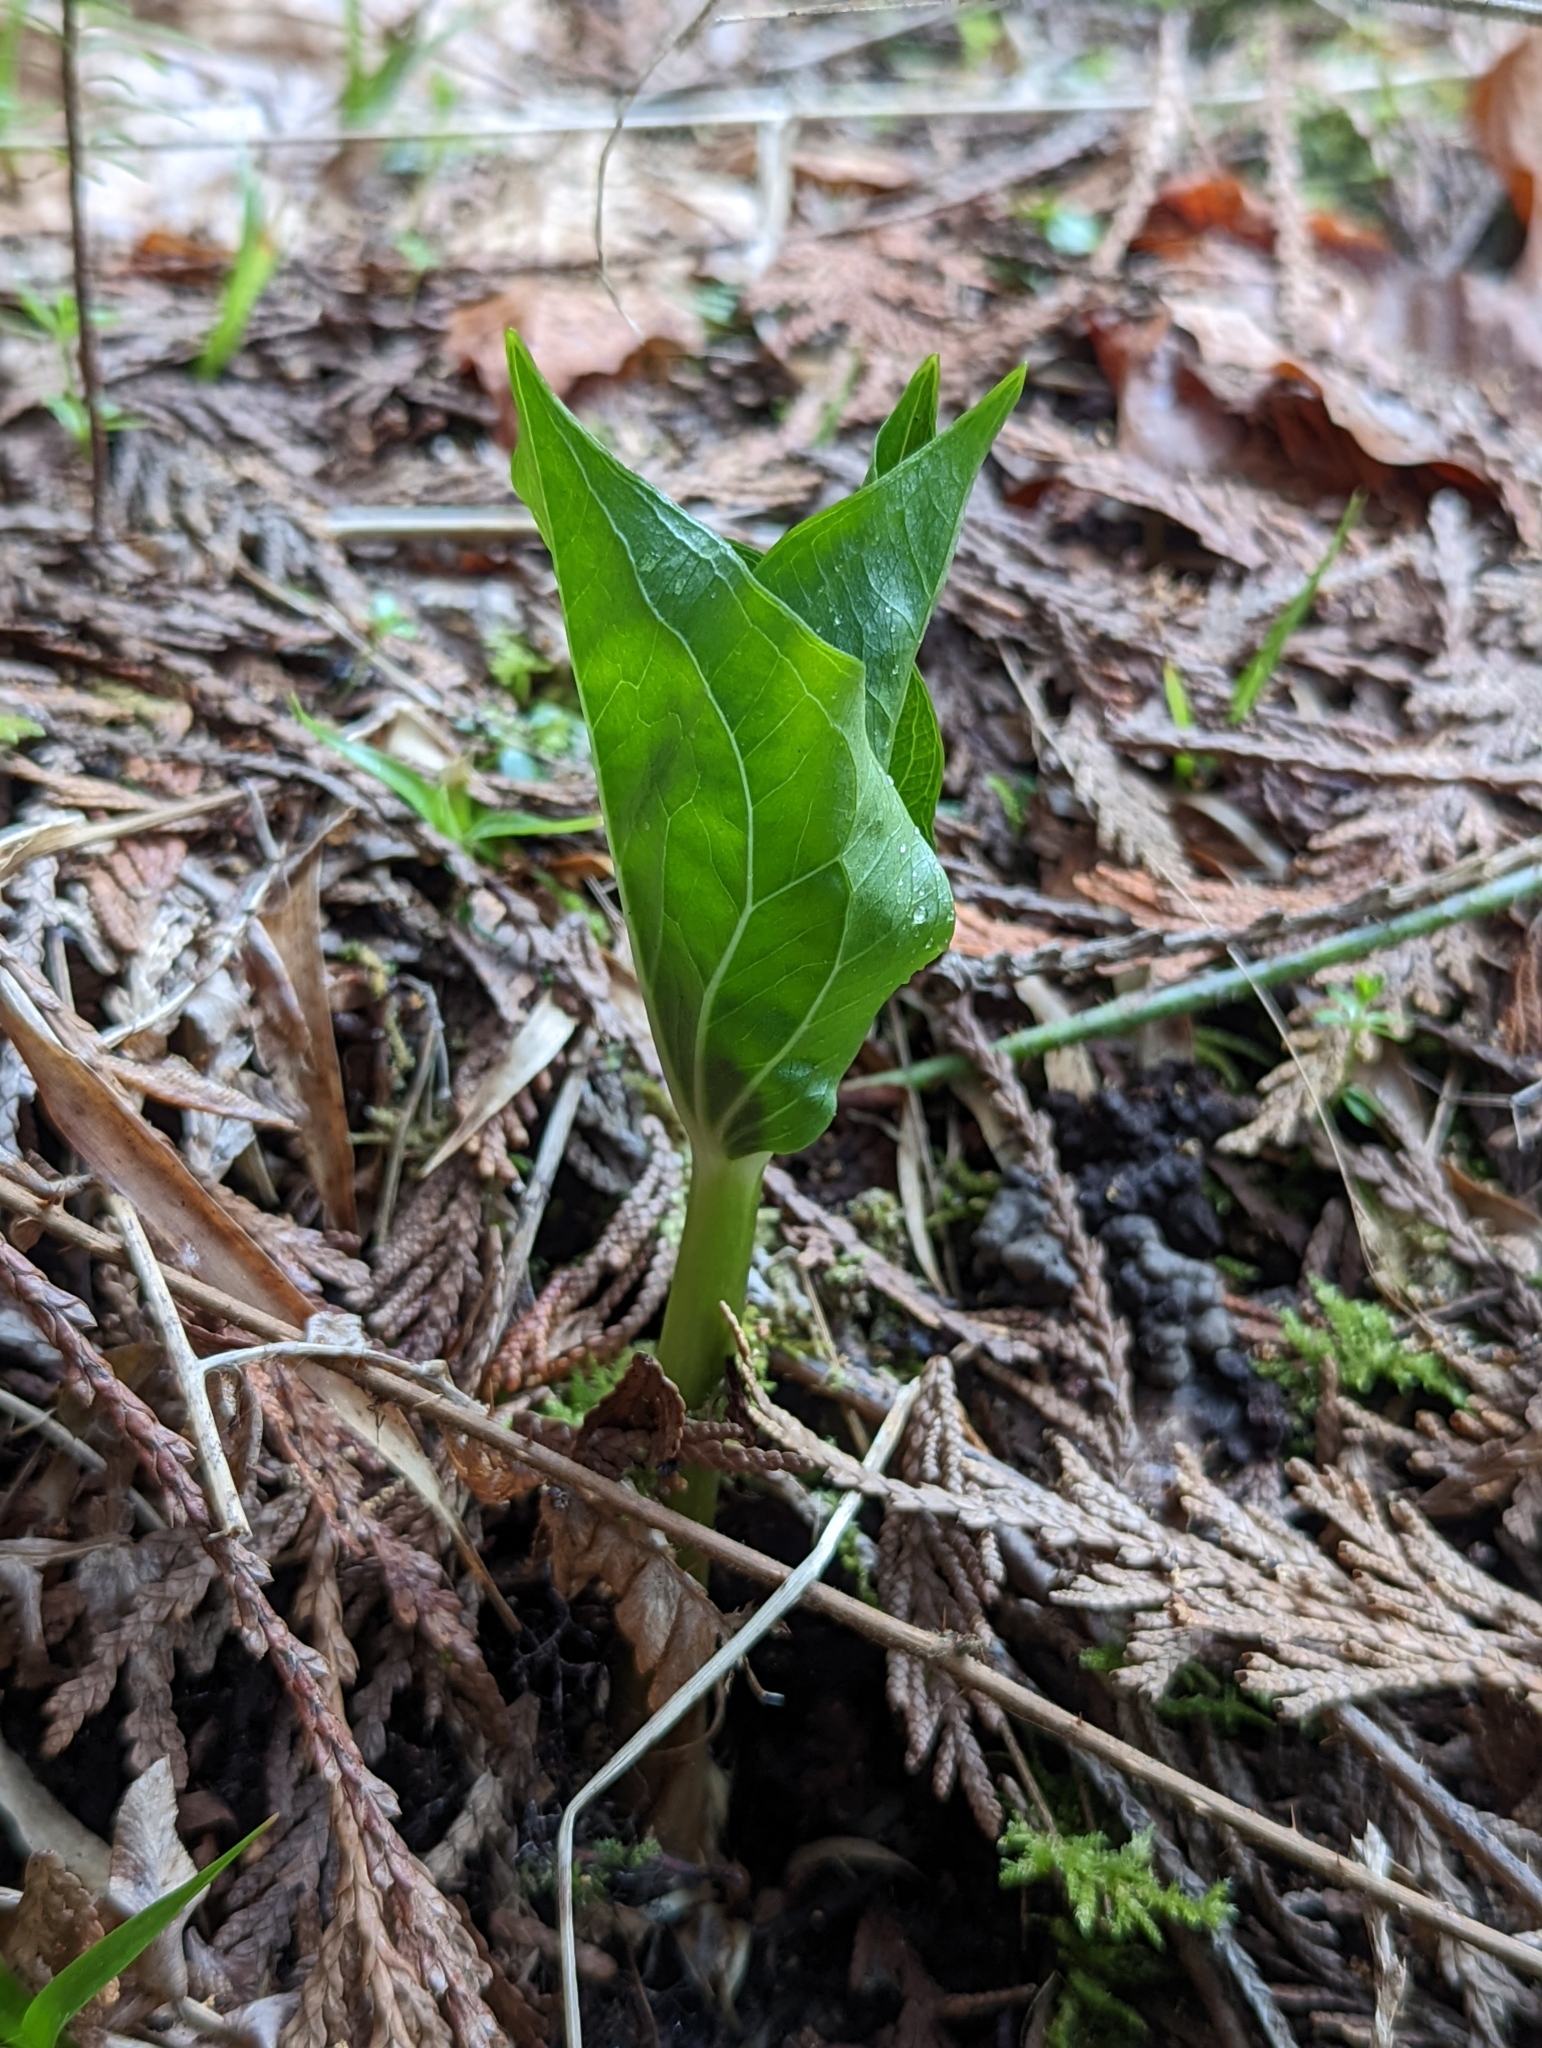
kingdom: Plantae
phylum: Tracheophyta
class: Liliopsida
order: Liliales
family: Melanthiaceae
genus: Trillium
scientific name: Trillium ovatum
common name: Pacific trillium
